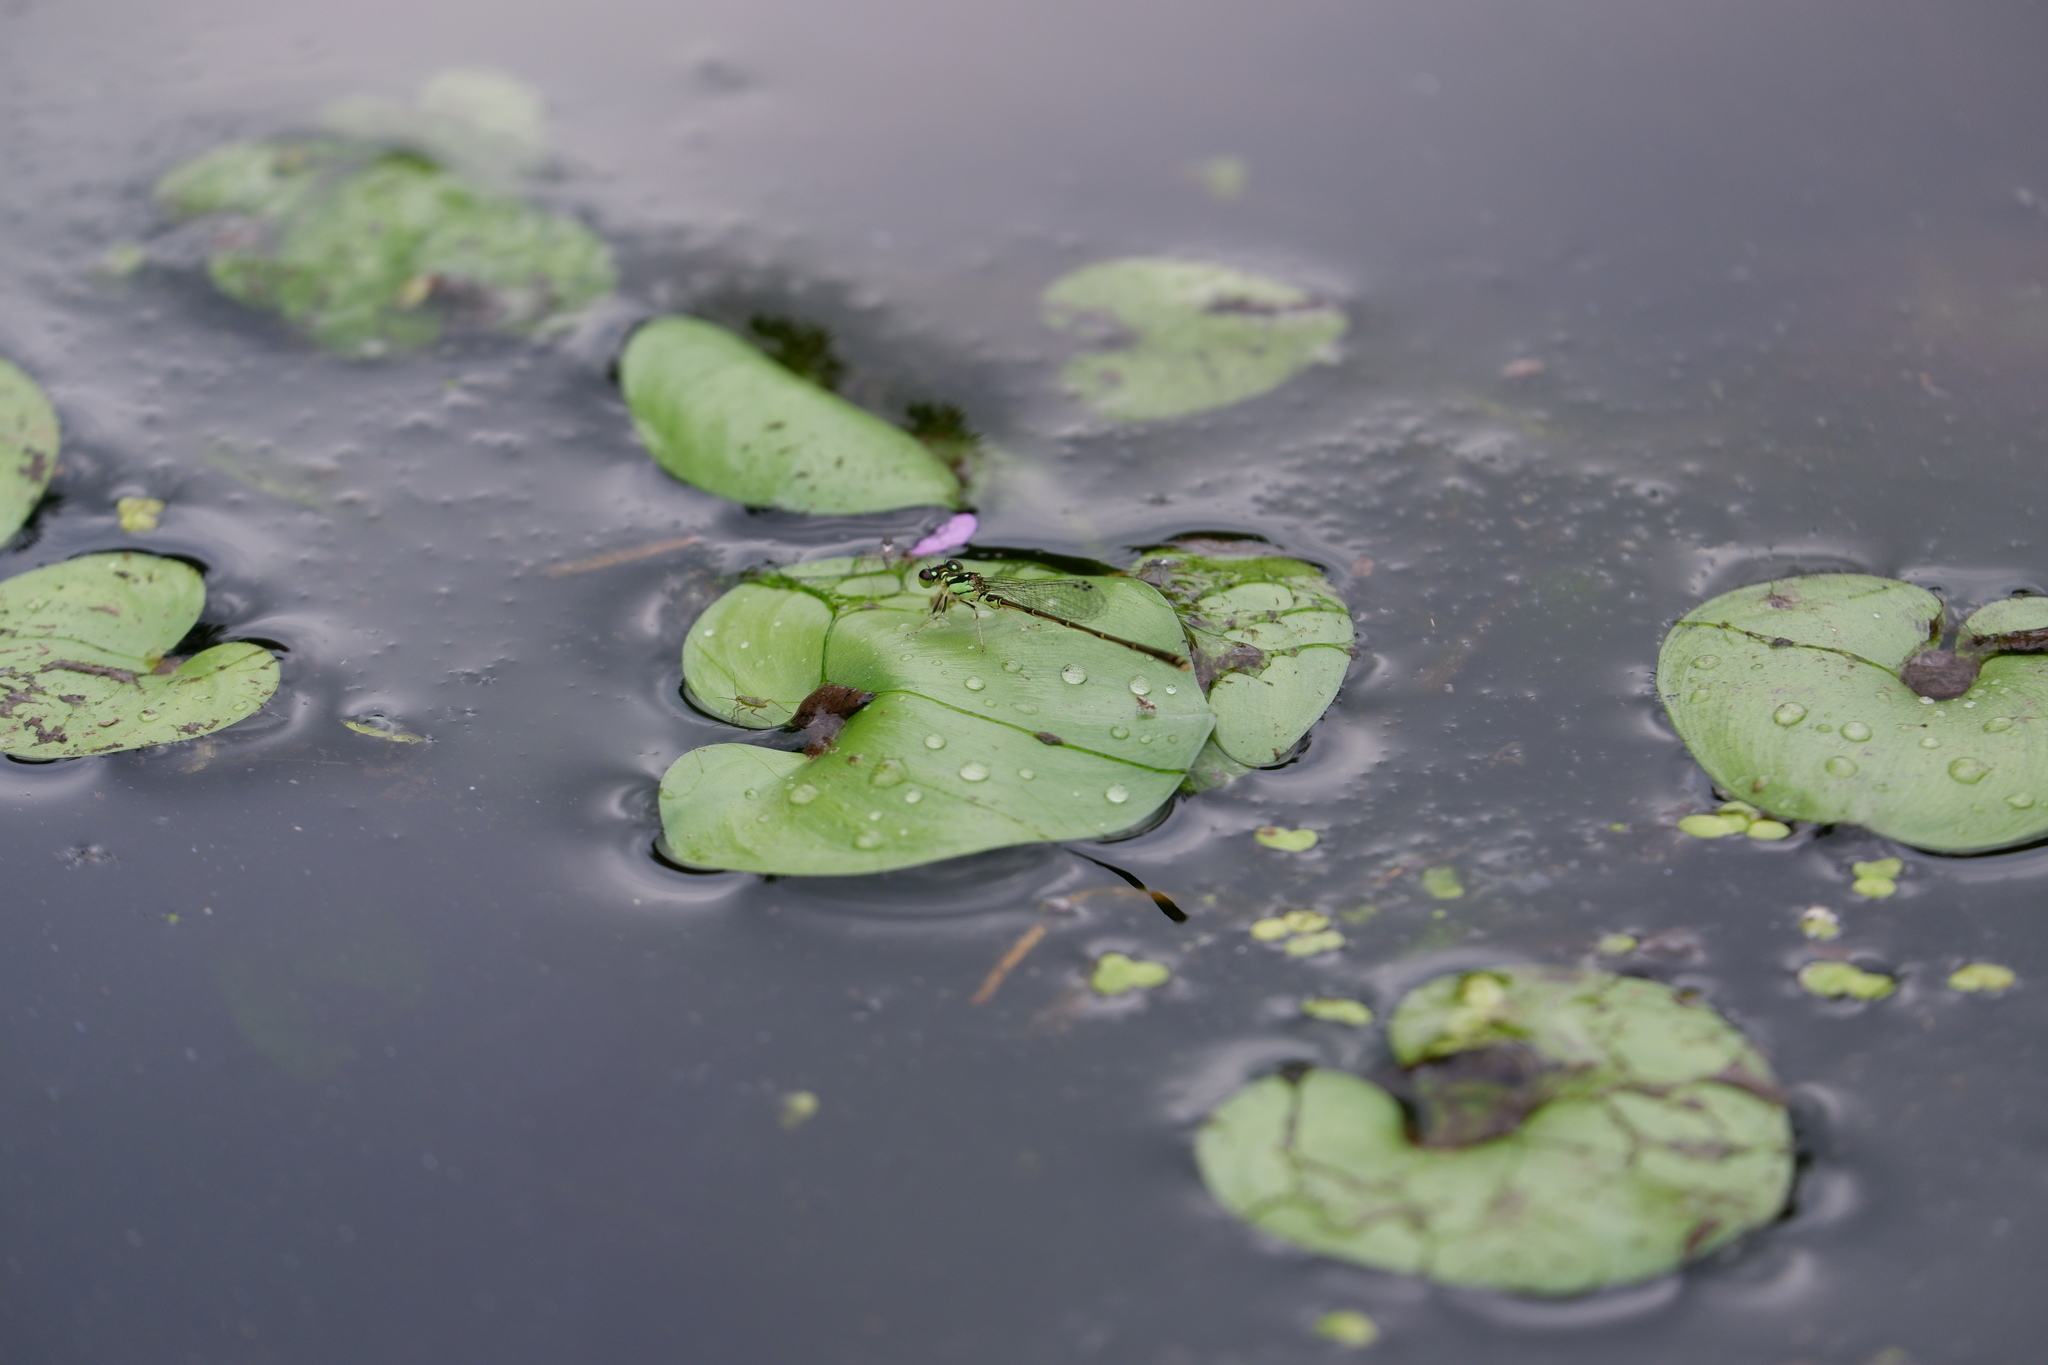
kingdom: Animalia
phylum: Arthropoda
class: Insecta
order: Odonata
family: Coenagrionidae
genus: Ischnura
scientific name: Ischnura posita
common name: Fragile forktail
